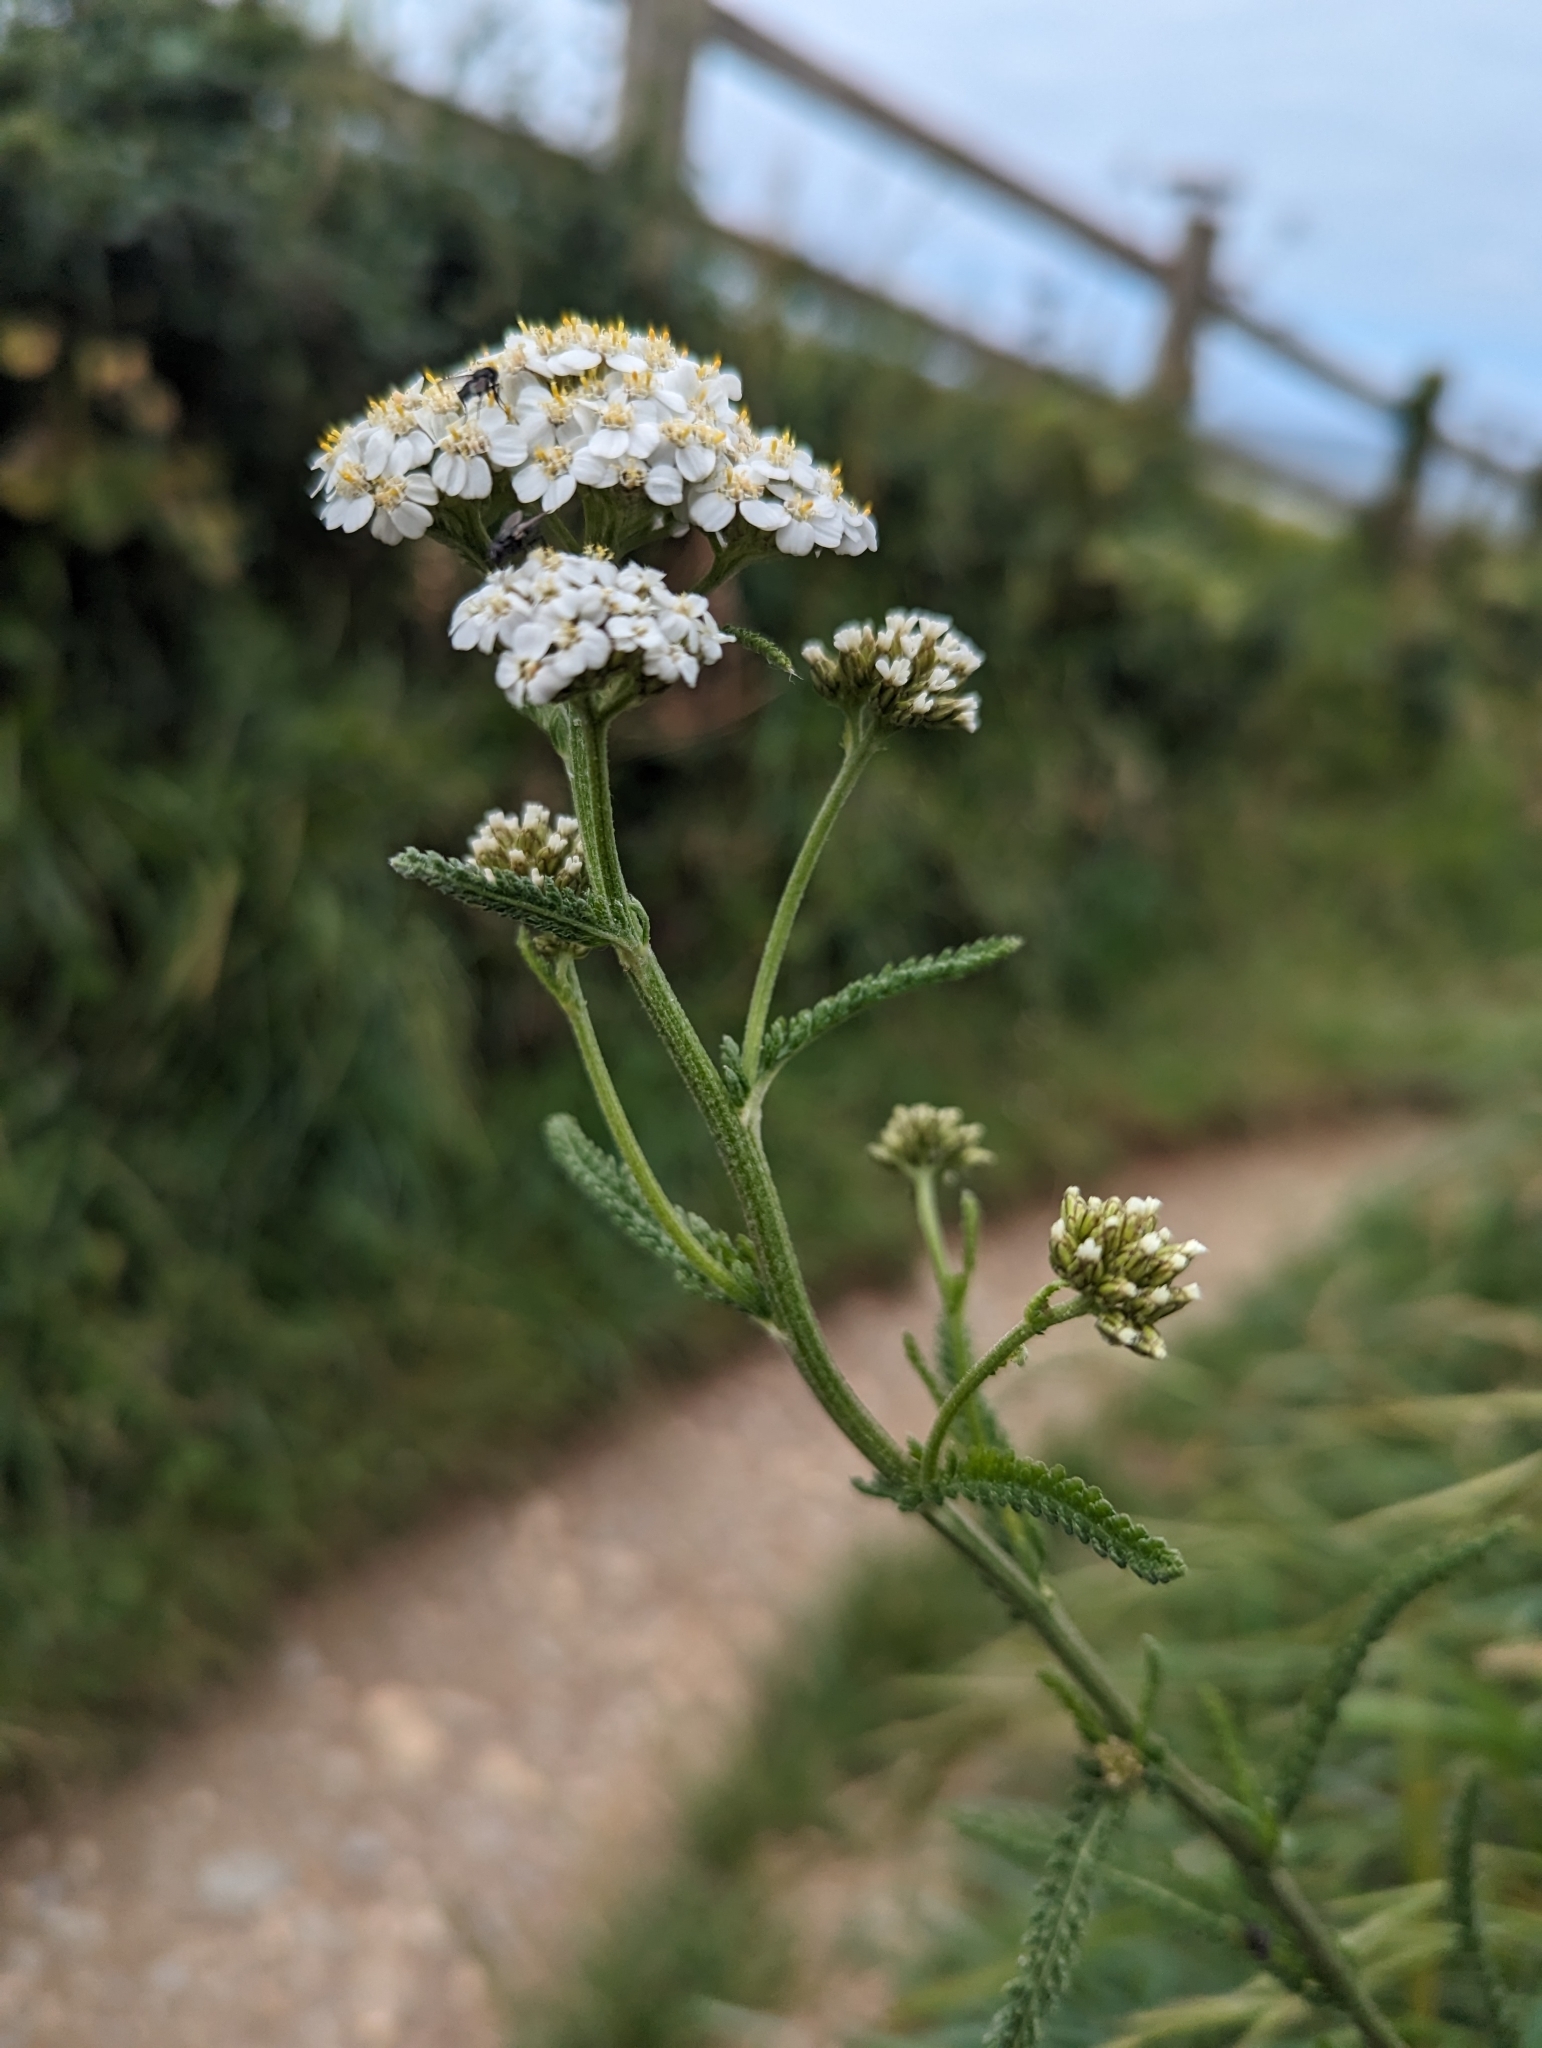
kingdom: Plantae
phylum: Tracheophyta
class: Magnoliopsida
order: Asterales
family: Asteraceae
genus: Achillea
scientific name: Achillea millefolium
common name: Yarrow
